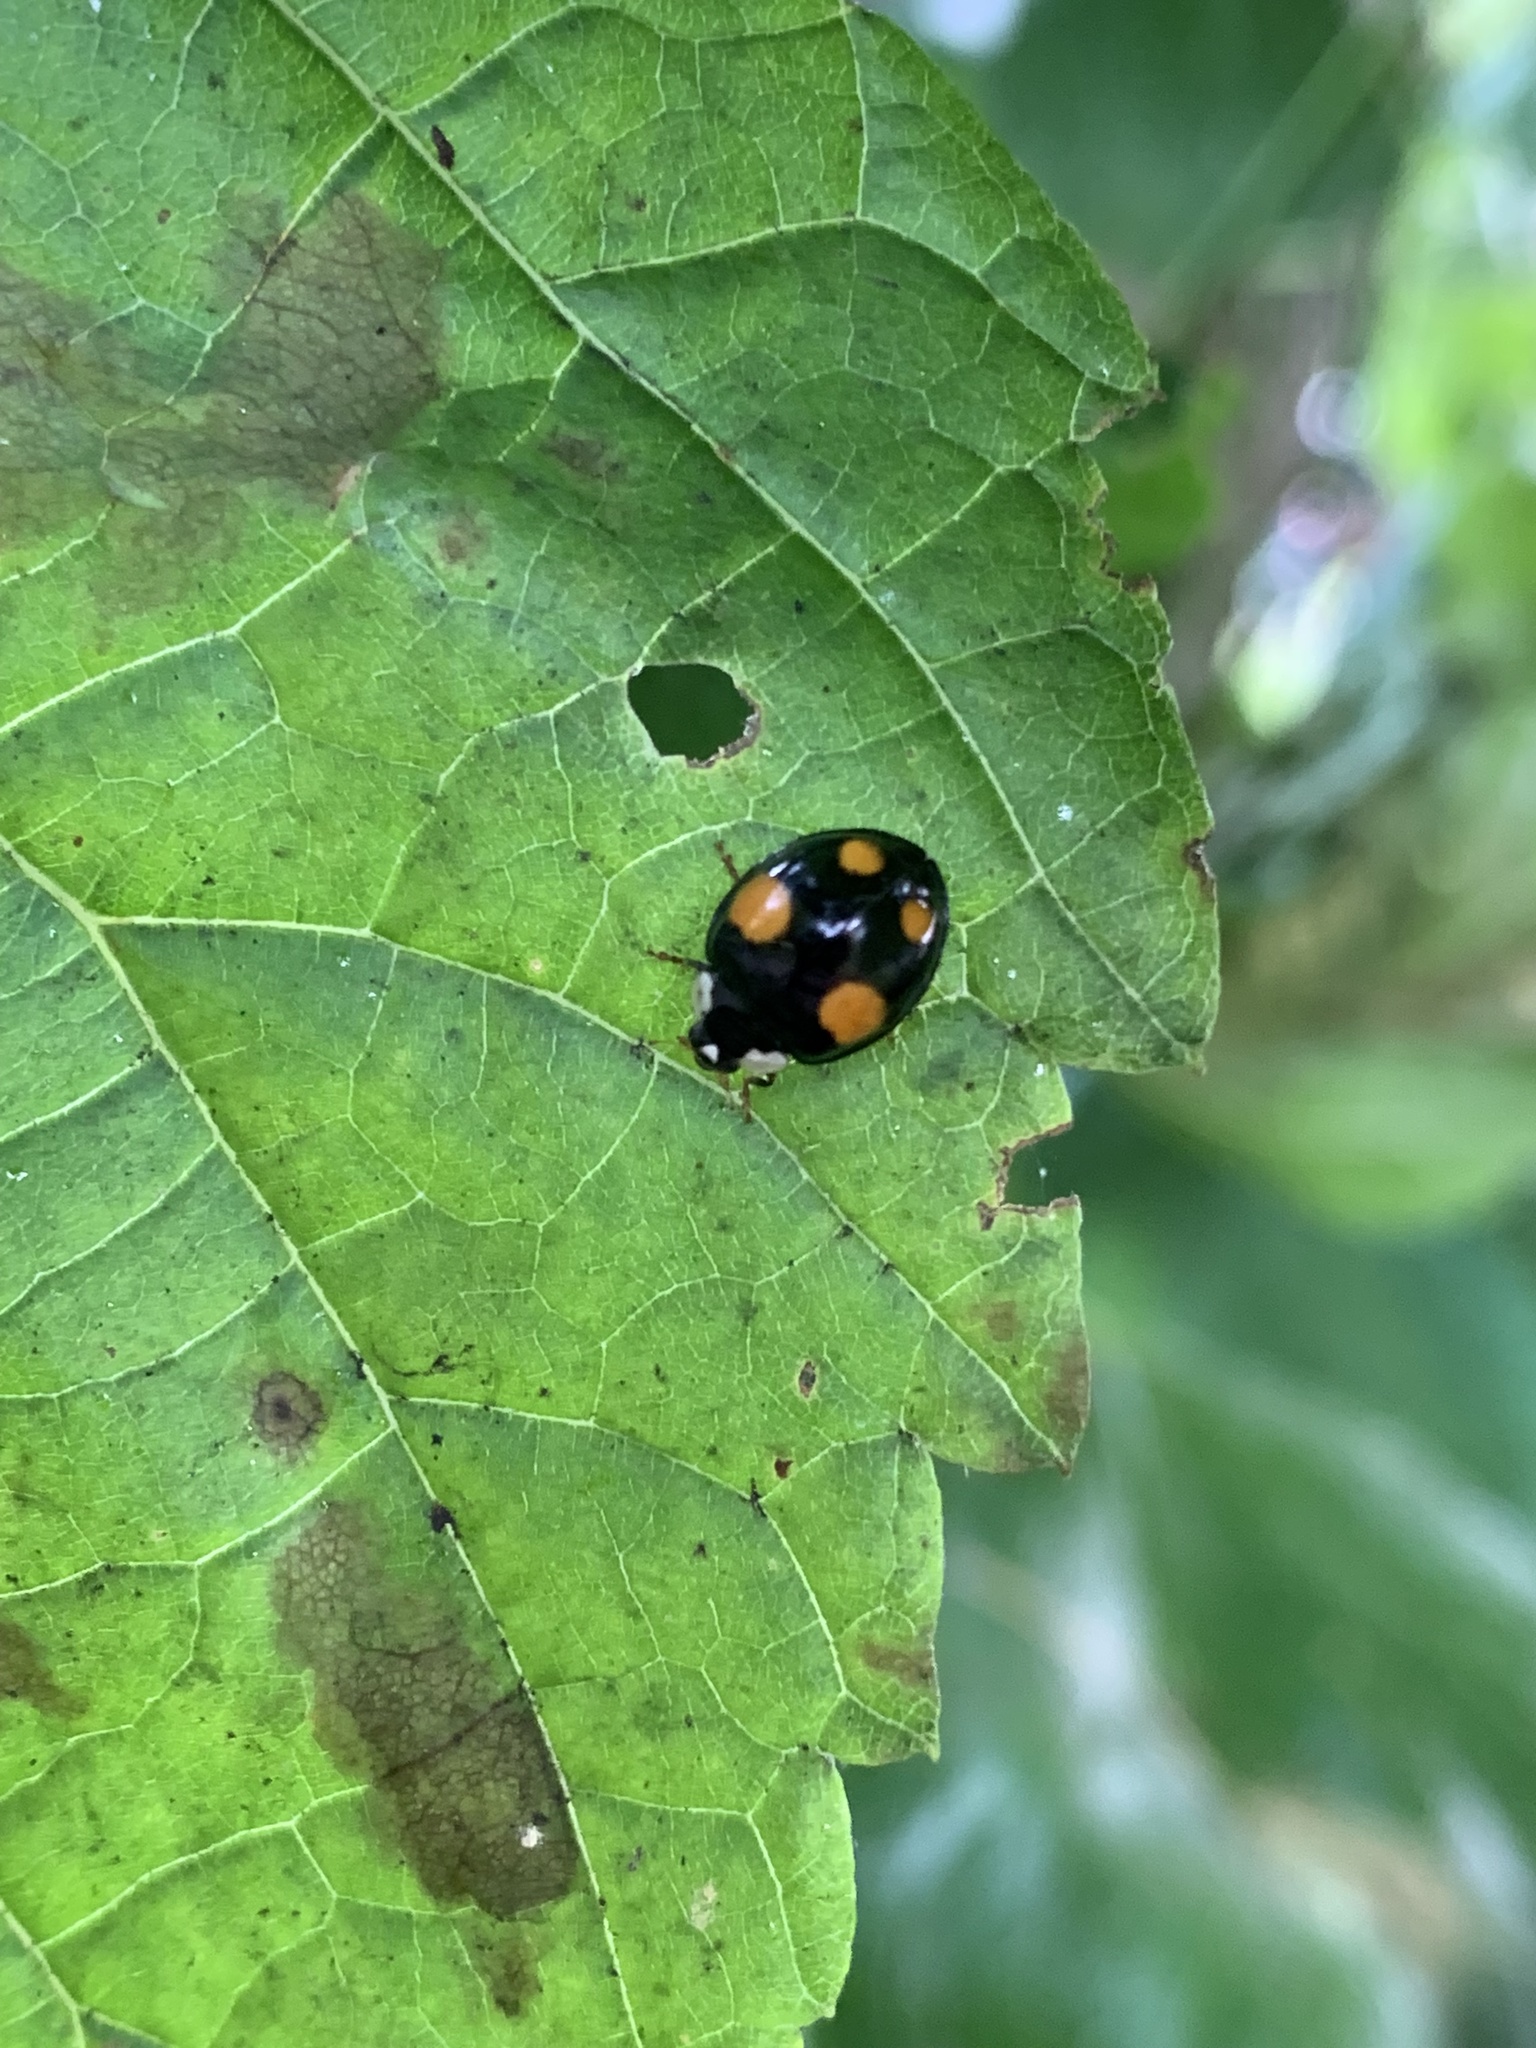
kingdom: Animalia
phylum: Arthropoda
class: Insecta
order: Coleoptera
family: Coccinellidae
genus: Harmonia
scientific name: Harmonia axyridis
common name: Harlequin ladybird
